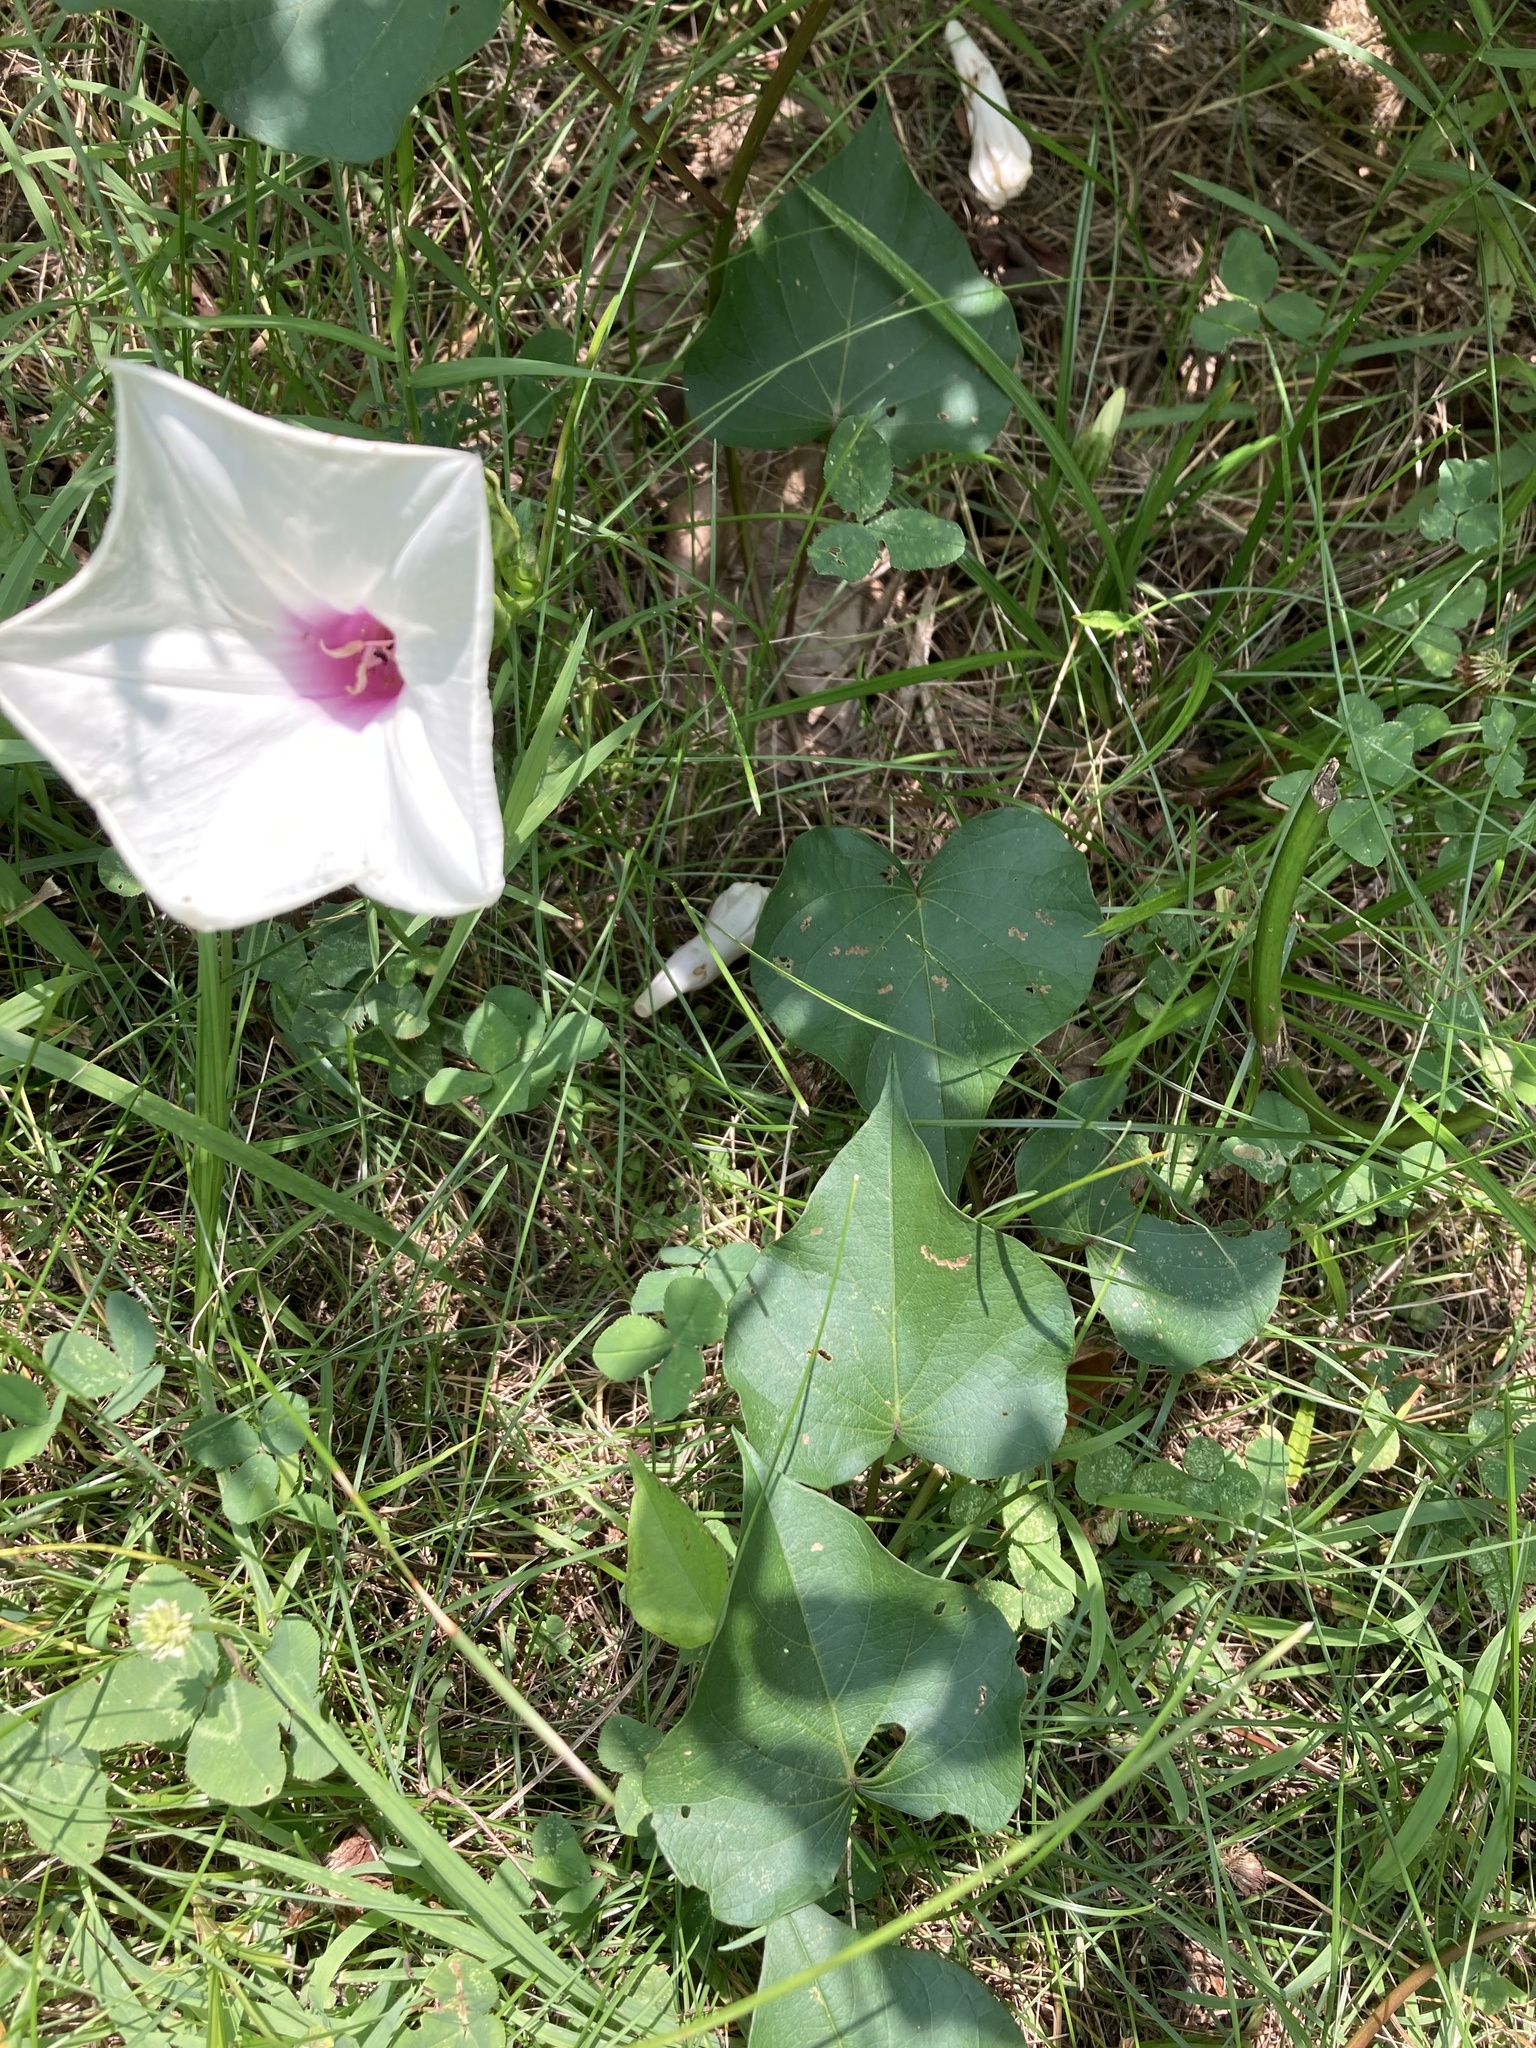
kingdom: Plantae
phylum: Tracheophyta
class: Magnoliopsida
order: Solanales
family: Convolvulaceae
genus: Ipomoea
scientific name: Ipomoea pandurata
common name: Man-of-the-earth
